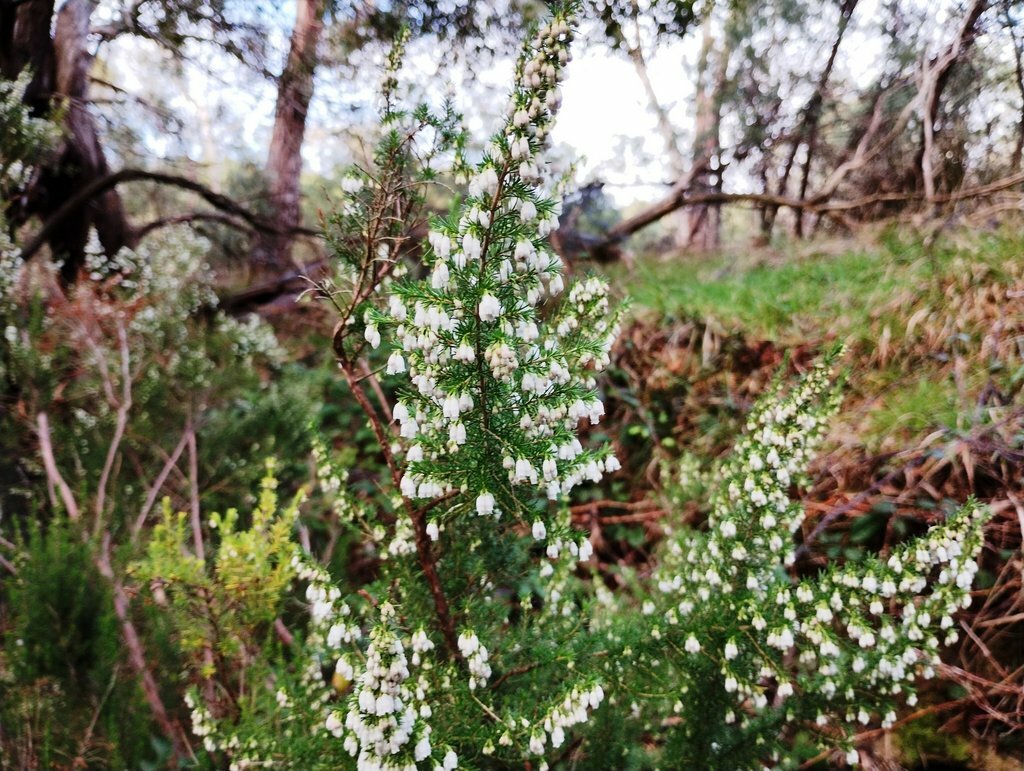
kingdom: Plantae
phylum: Tracheophyta
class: Magnoliopsida
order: Ericales
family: Ericaceae
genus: Erica
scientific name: Erica lusitanica
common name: Spanish heath
